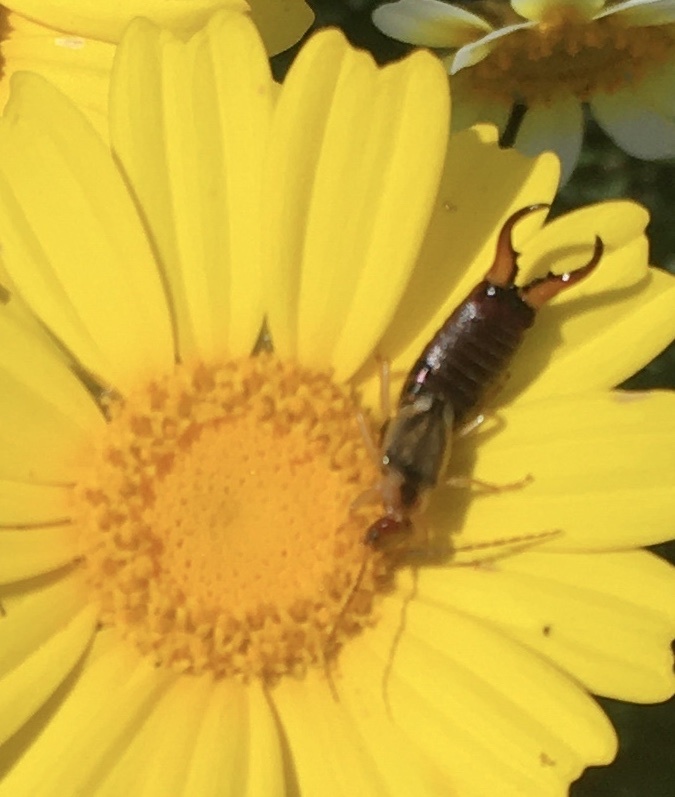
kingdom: Animalia
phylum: Arthropoda
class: Insecta
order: Dermaptera
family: Forficulidae
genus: Forficula
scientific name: Forficula
